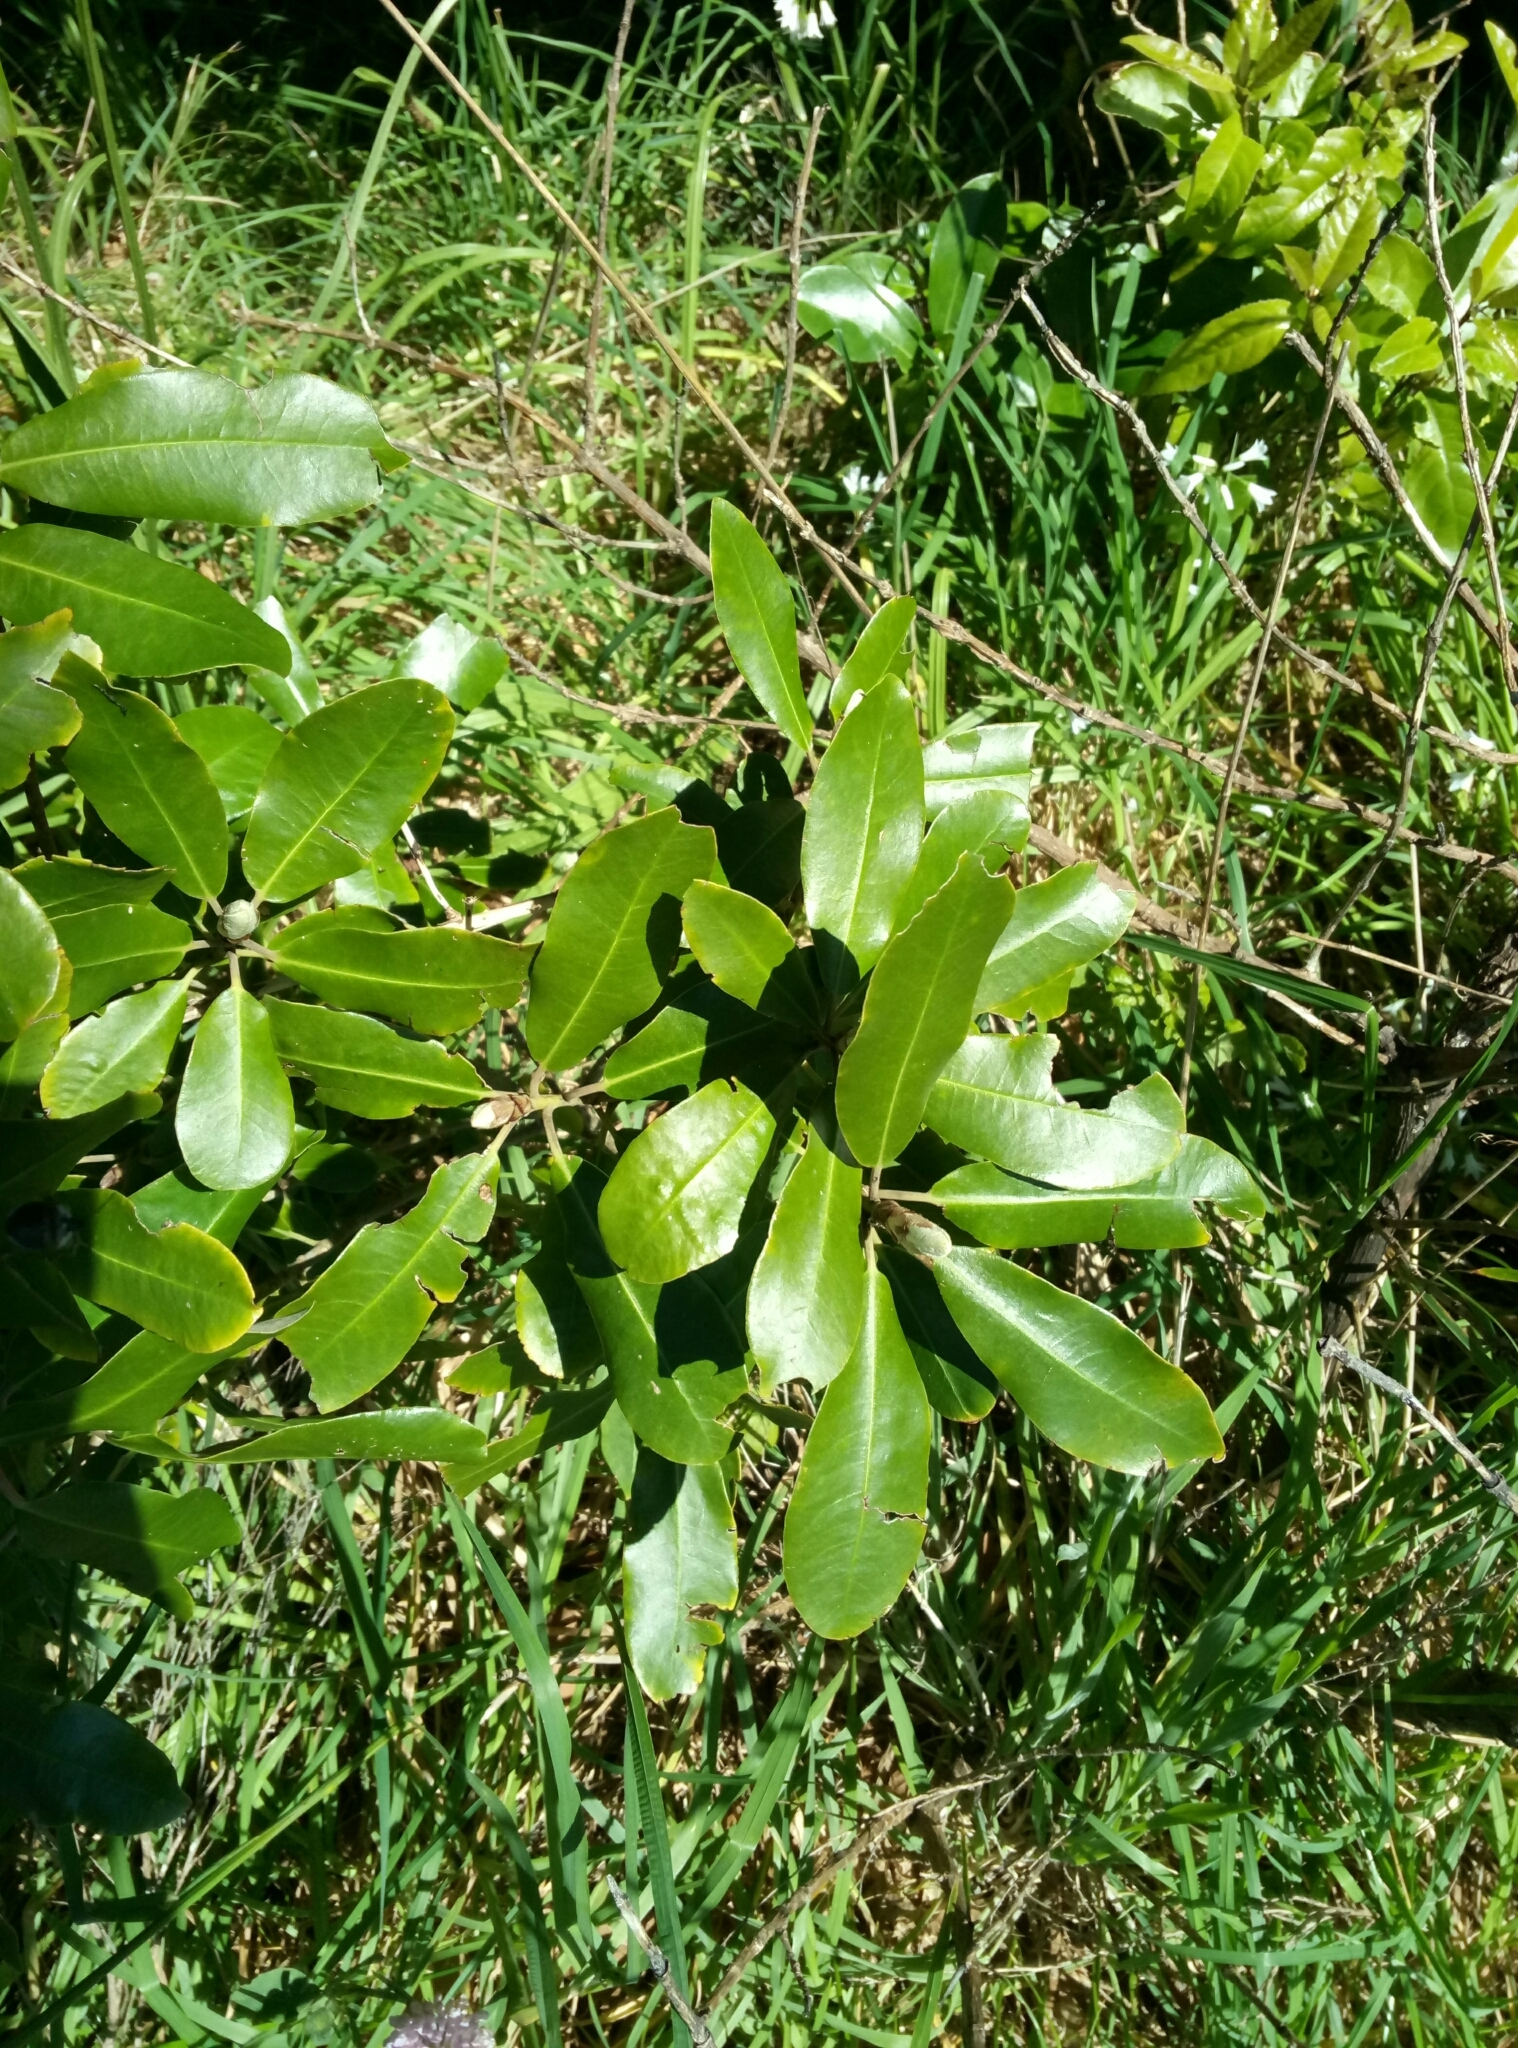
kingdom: Plantae
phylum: Tracheophyta
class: Magnoliopsida
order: Apiales
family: Pittosporaceae
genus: Pittosporum
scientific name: Pittosporum ralphii
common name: Ralph's desertwillow
